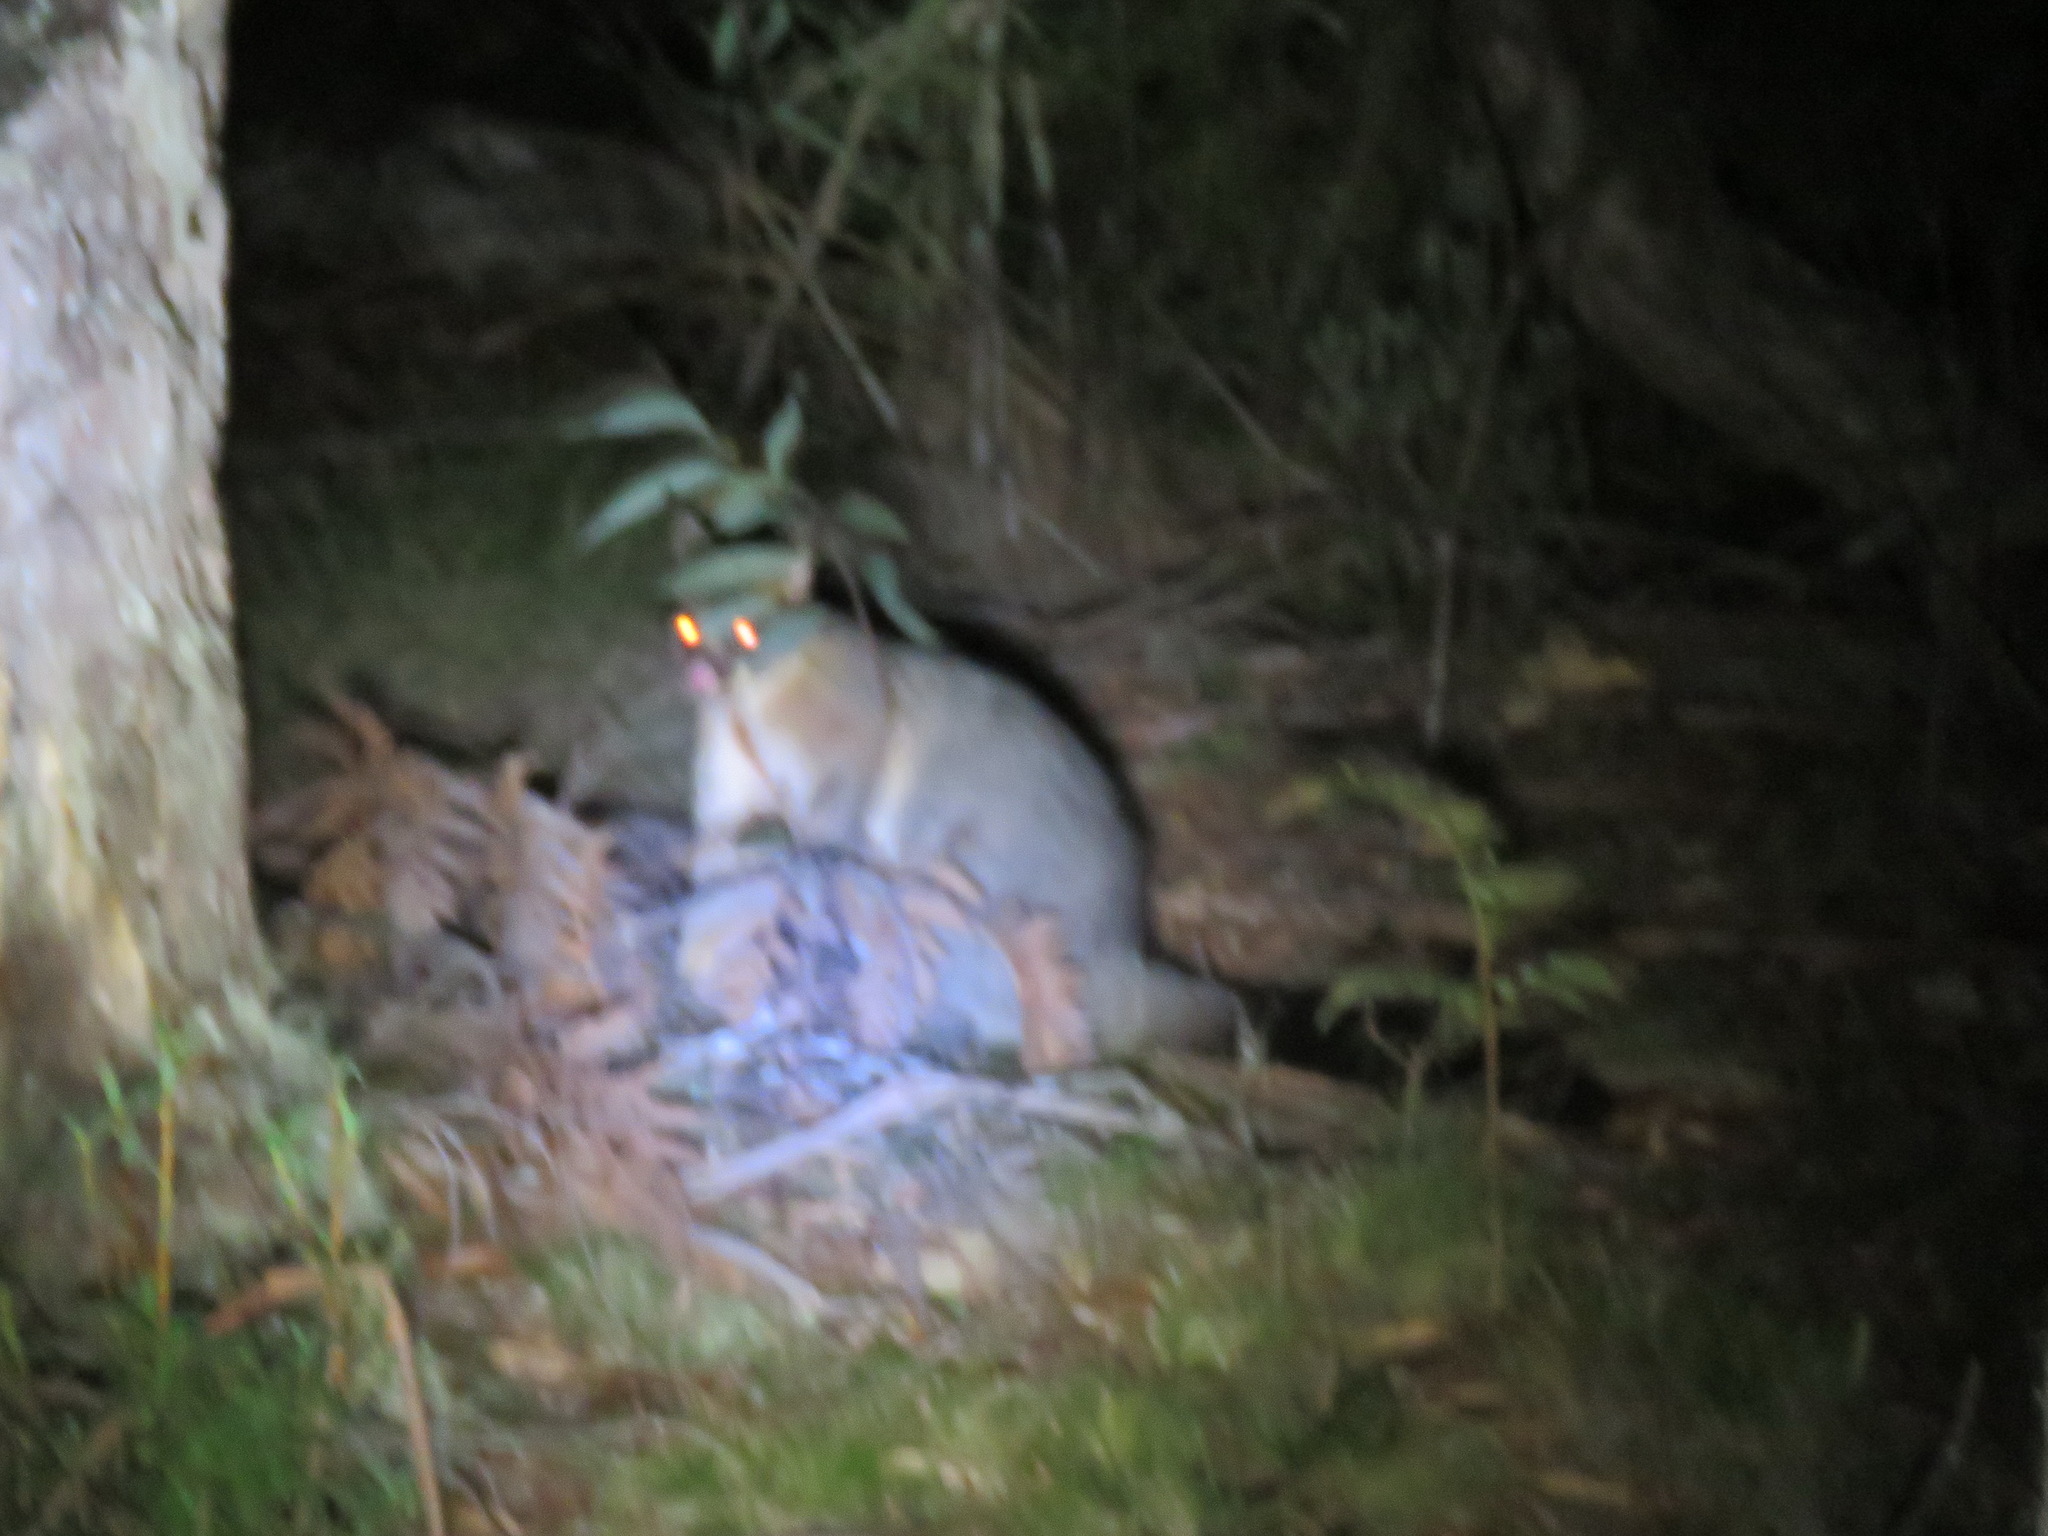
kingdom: Animalia
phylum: Chordata
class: Mammalia
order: Diprotodontia
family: Phalangeridae
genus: Trichosurus
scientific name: Trichosurus vulpecula
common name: Common brushtail
